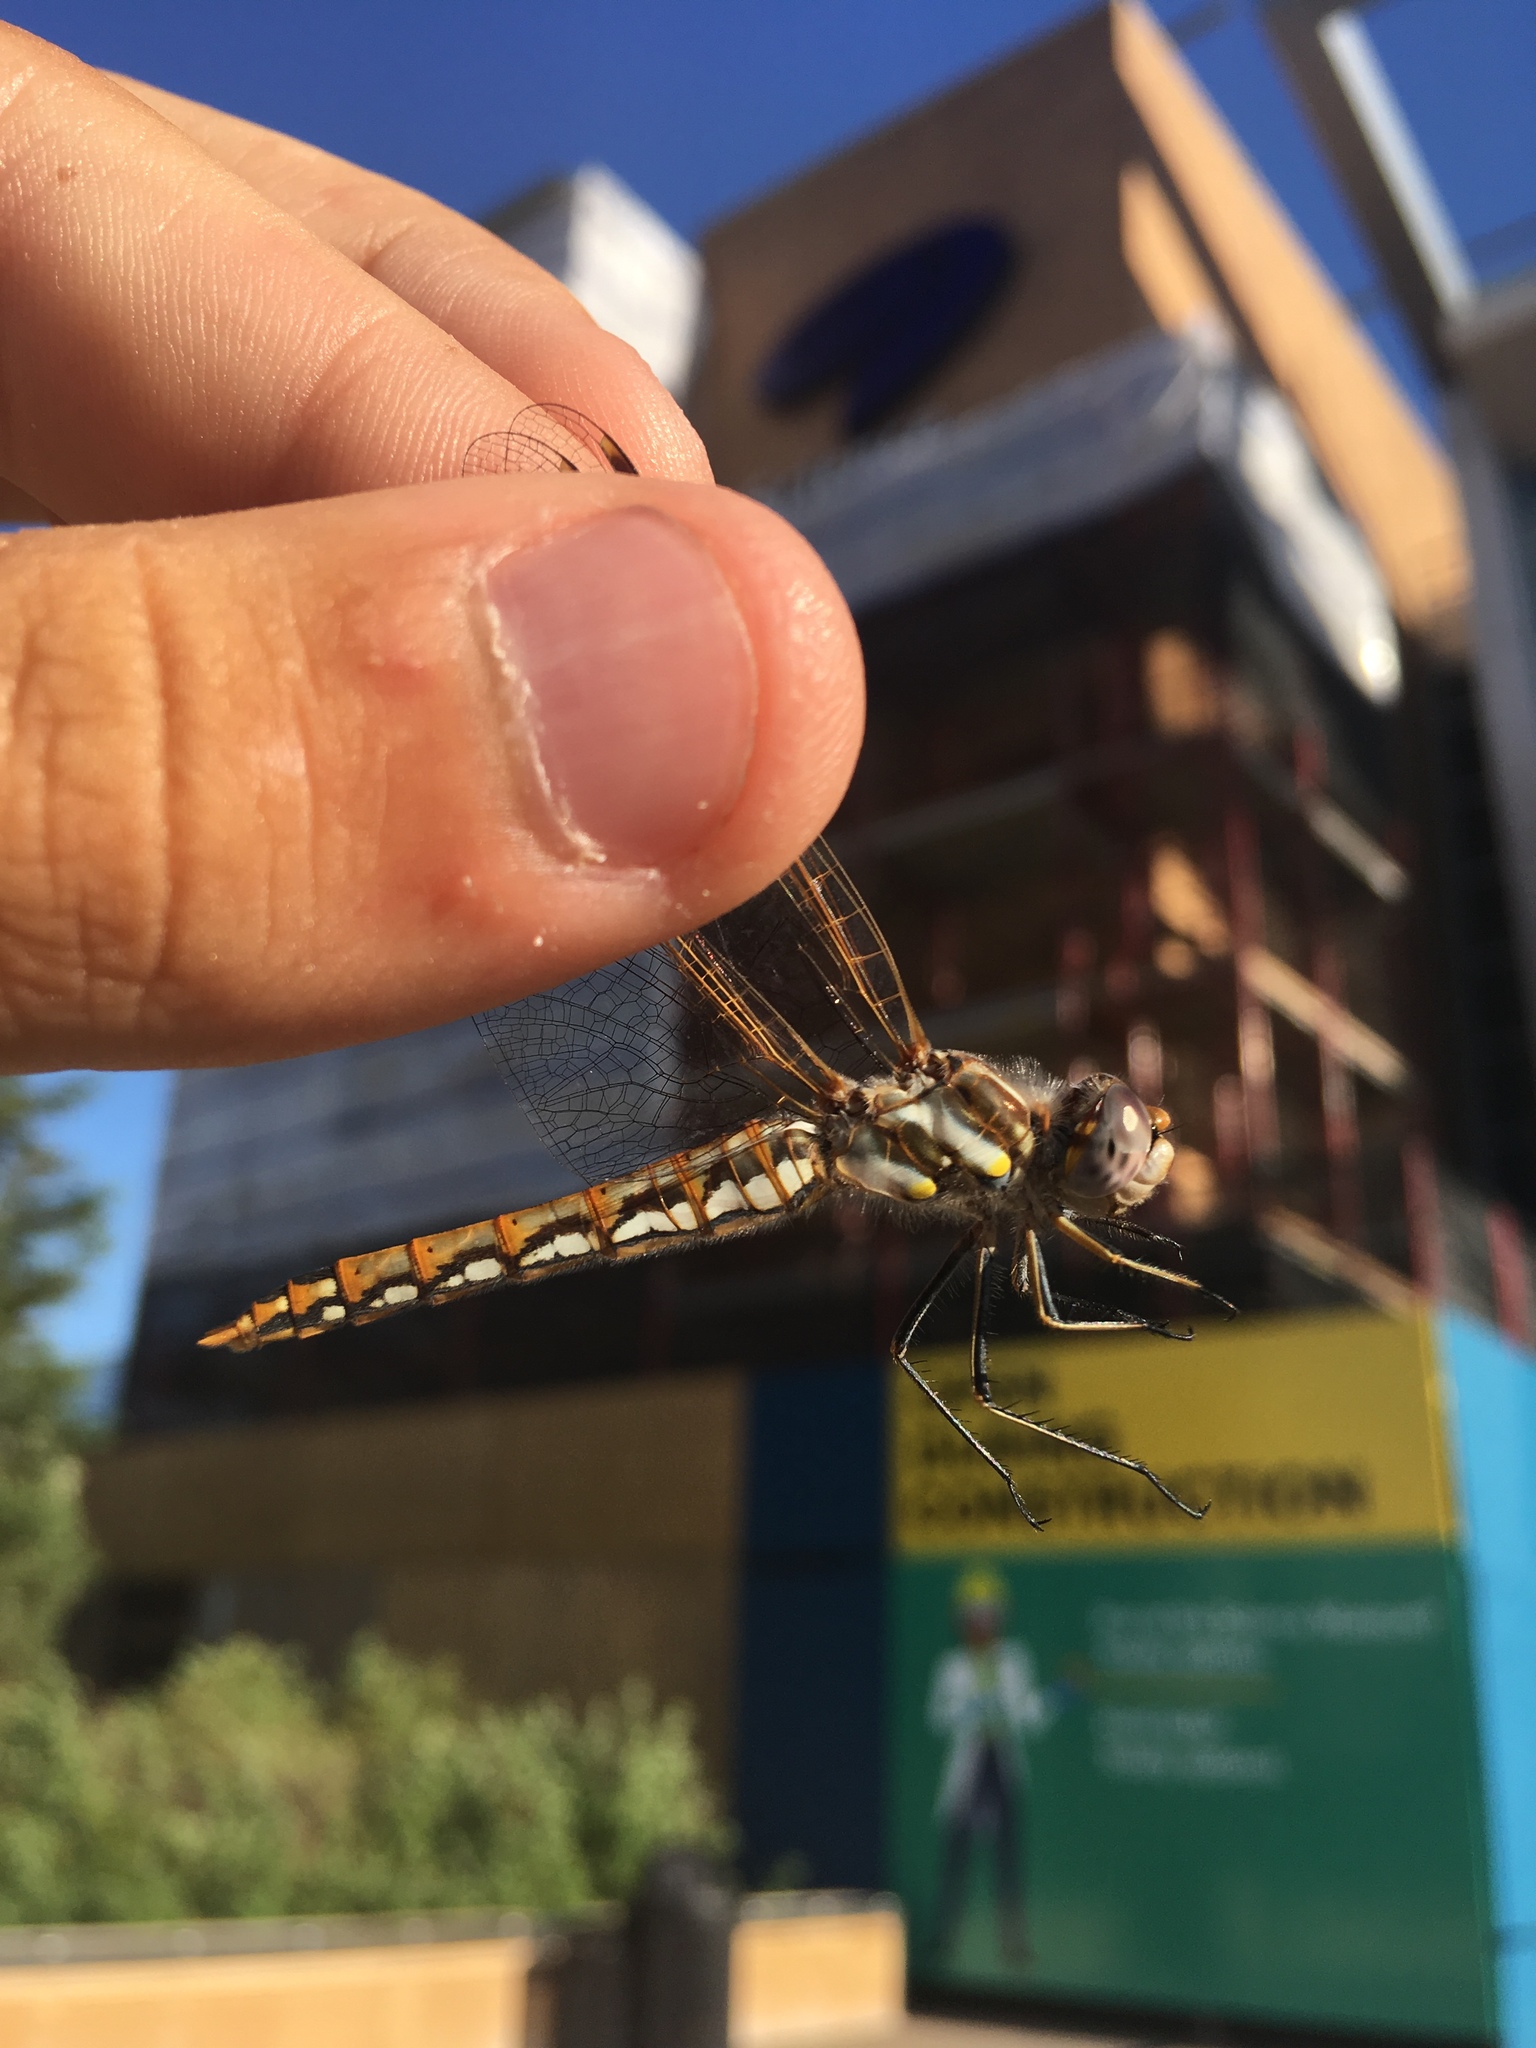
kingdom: Animalia
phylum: Arthropoda
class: Insecta
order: Odonata
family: Libellulidae
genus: Sympetrum
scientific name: Sympetrum corruptum
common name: Variegated meadowhawk
